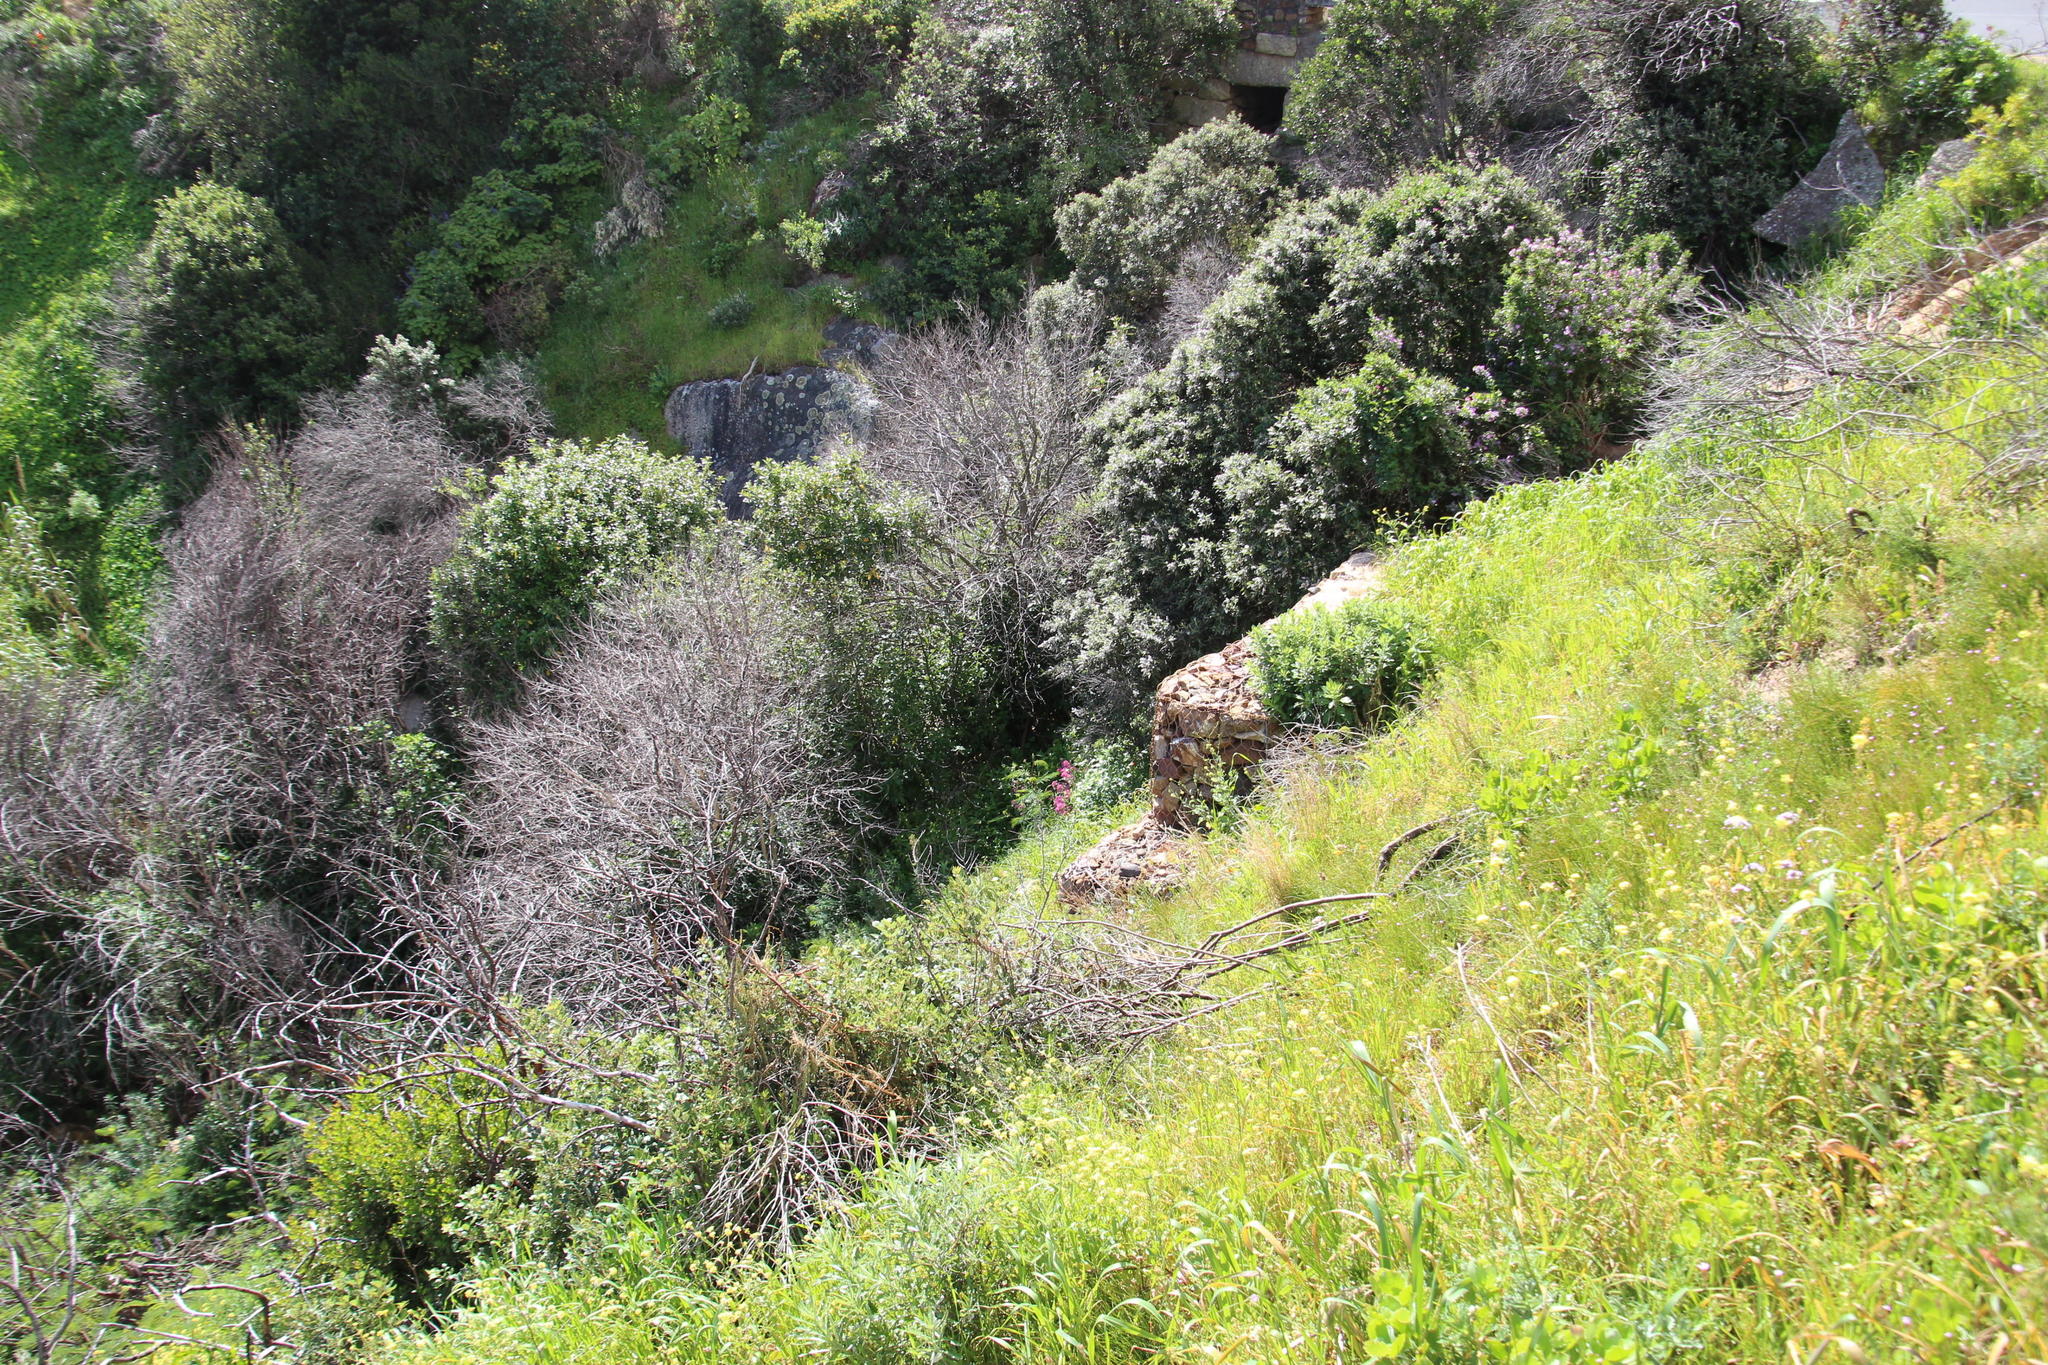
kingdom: Plantae
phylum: Tracheophyta
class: Magnoliopsida
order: Dipsacales
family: Caprifoliaceae
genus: Centranthus
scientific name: Centranthus ruber
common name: Red valerian
